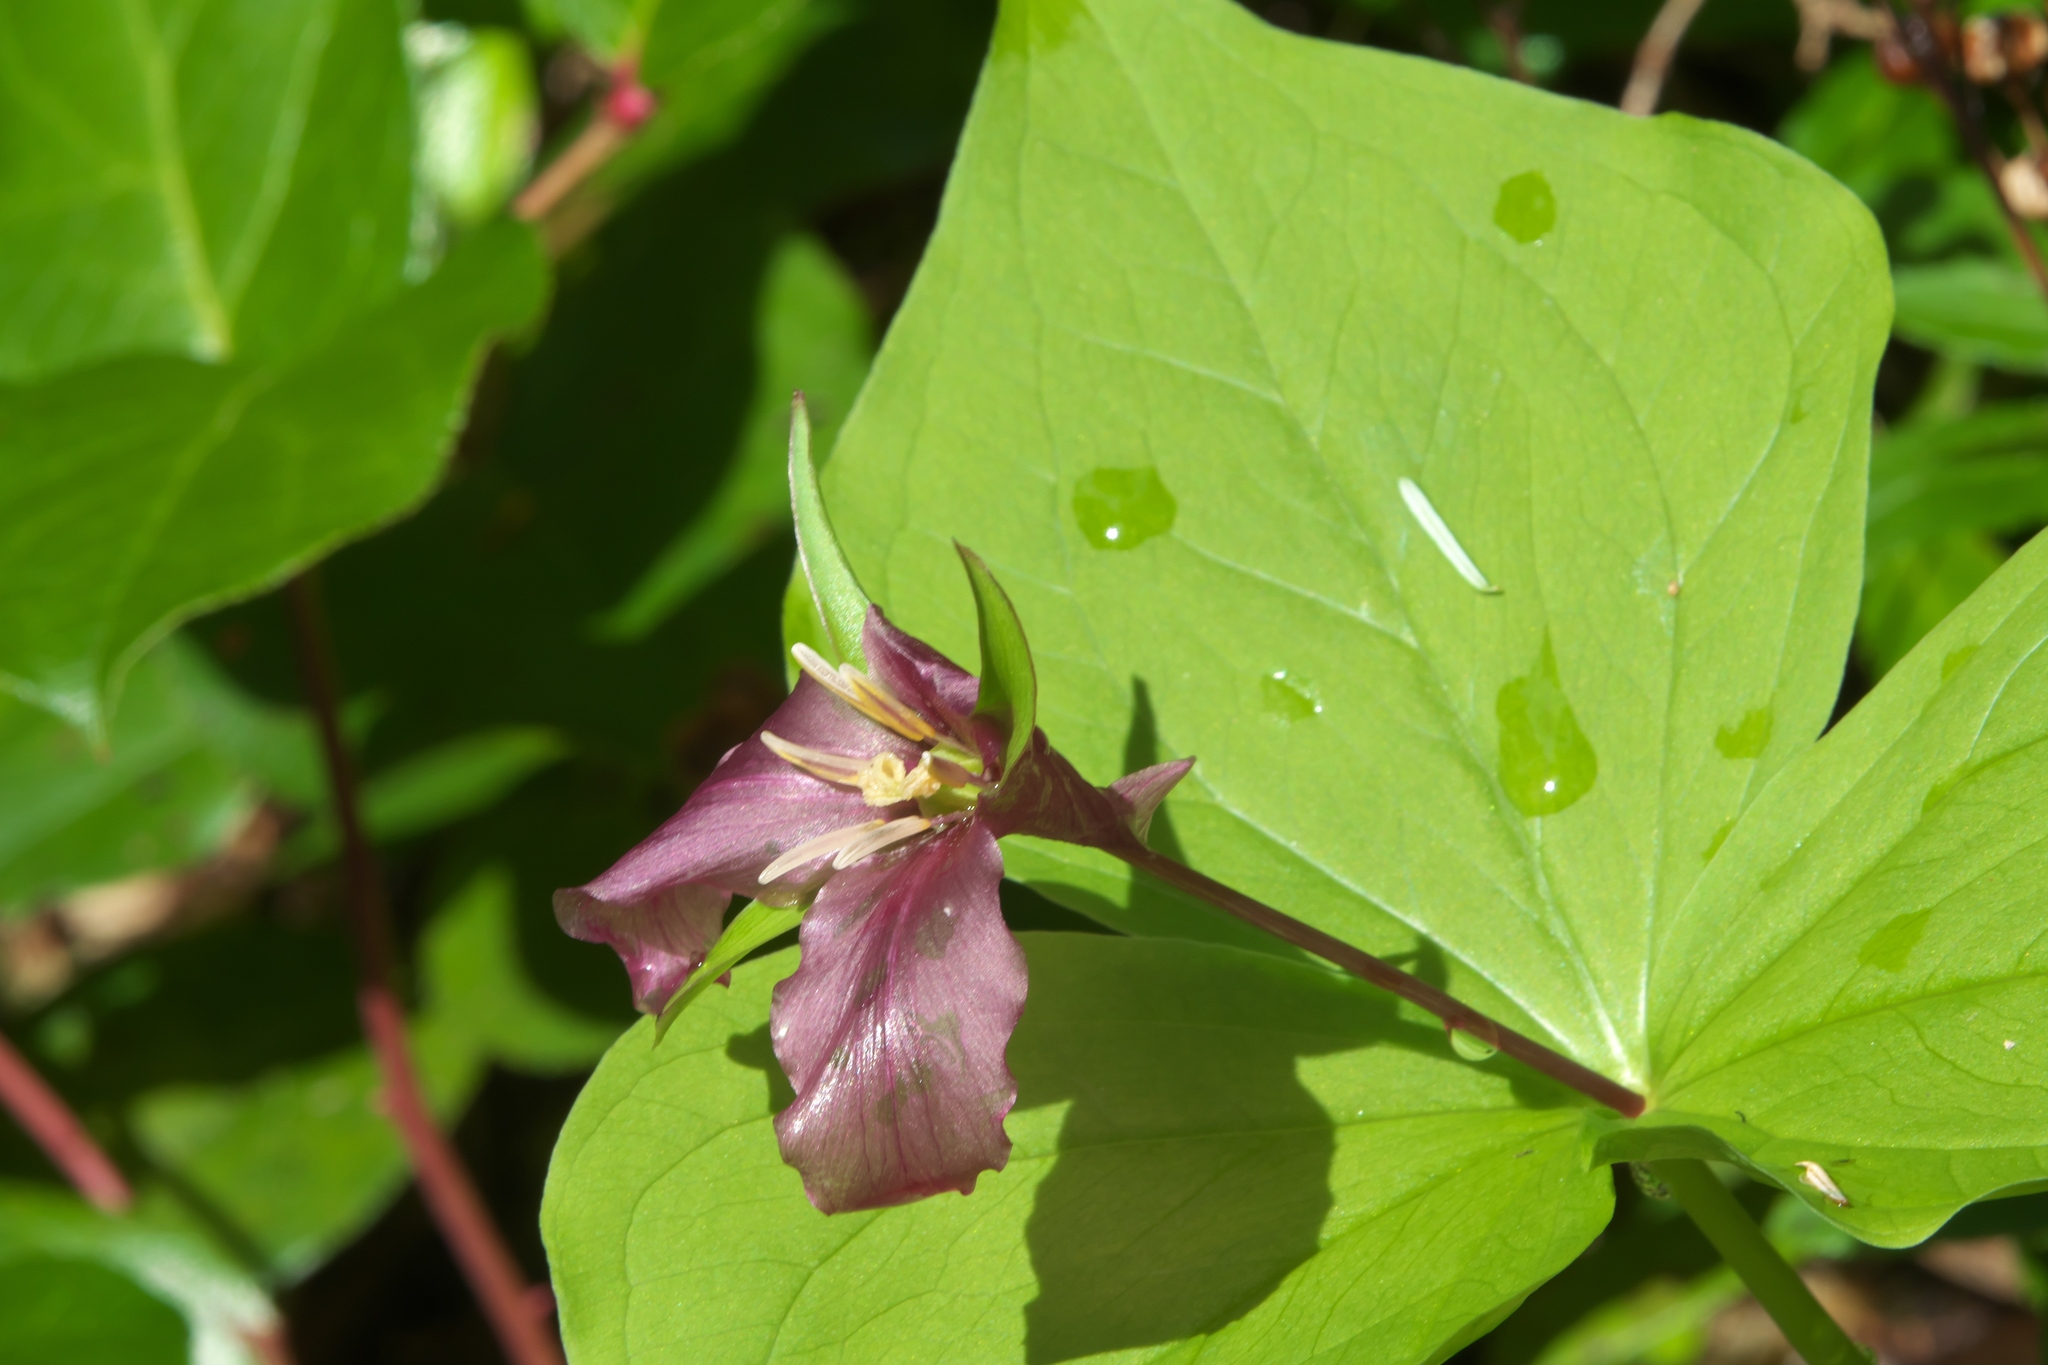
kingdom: Plantae
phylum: Tracheophyta
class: Liliopsida
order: Liliales
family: Melanthiaceae
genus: Trillium
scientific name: Trillium ovatum
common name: Pacific trillium
